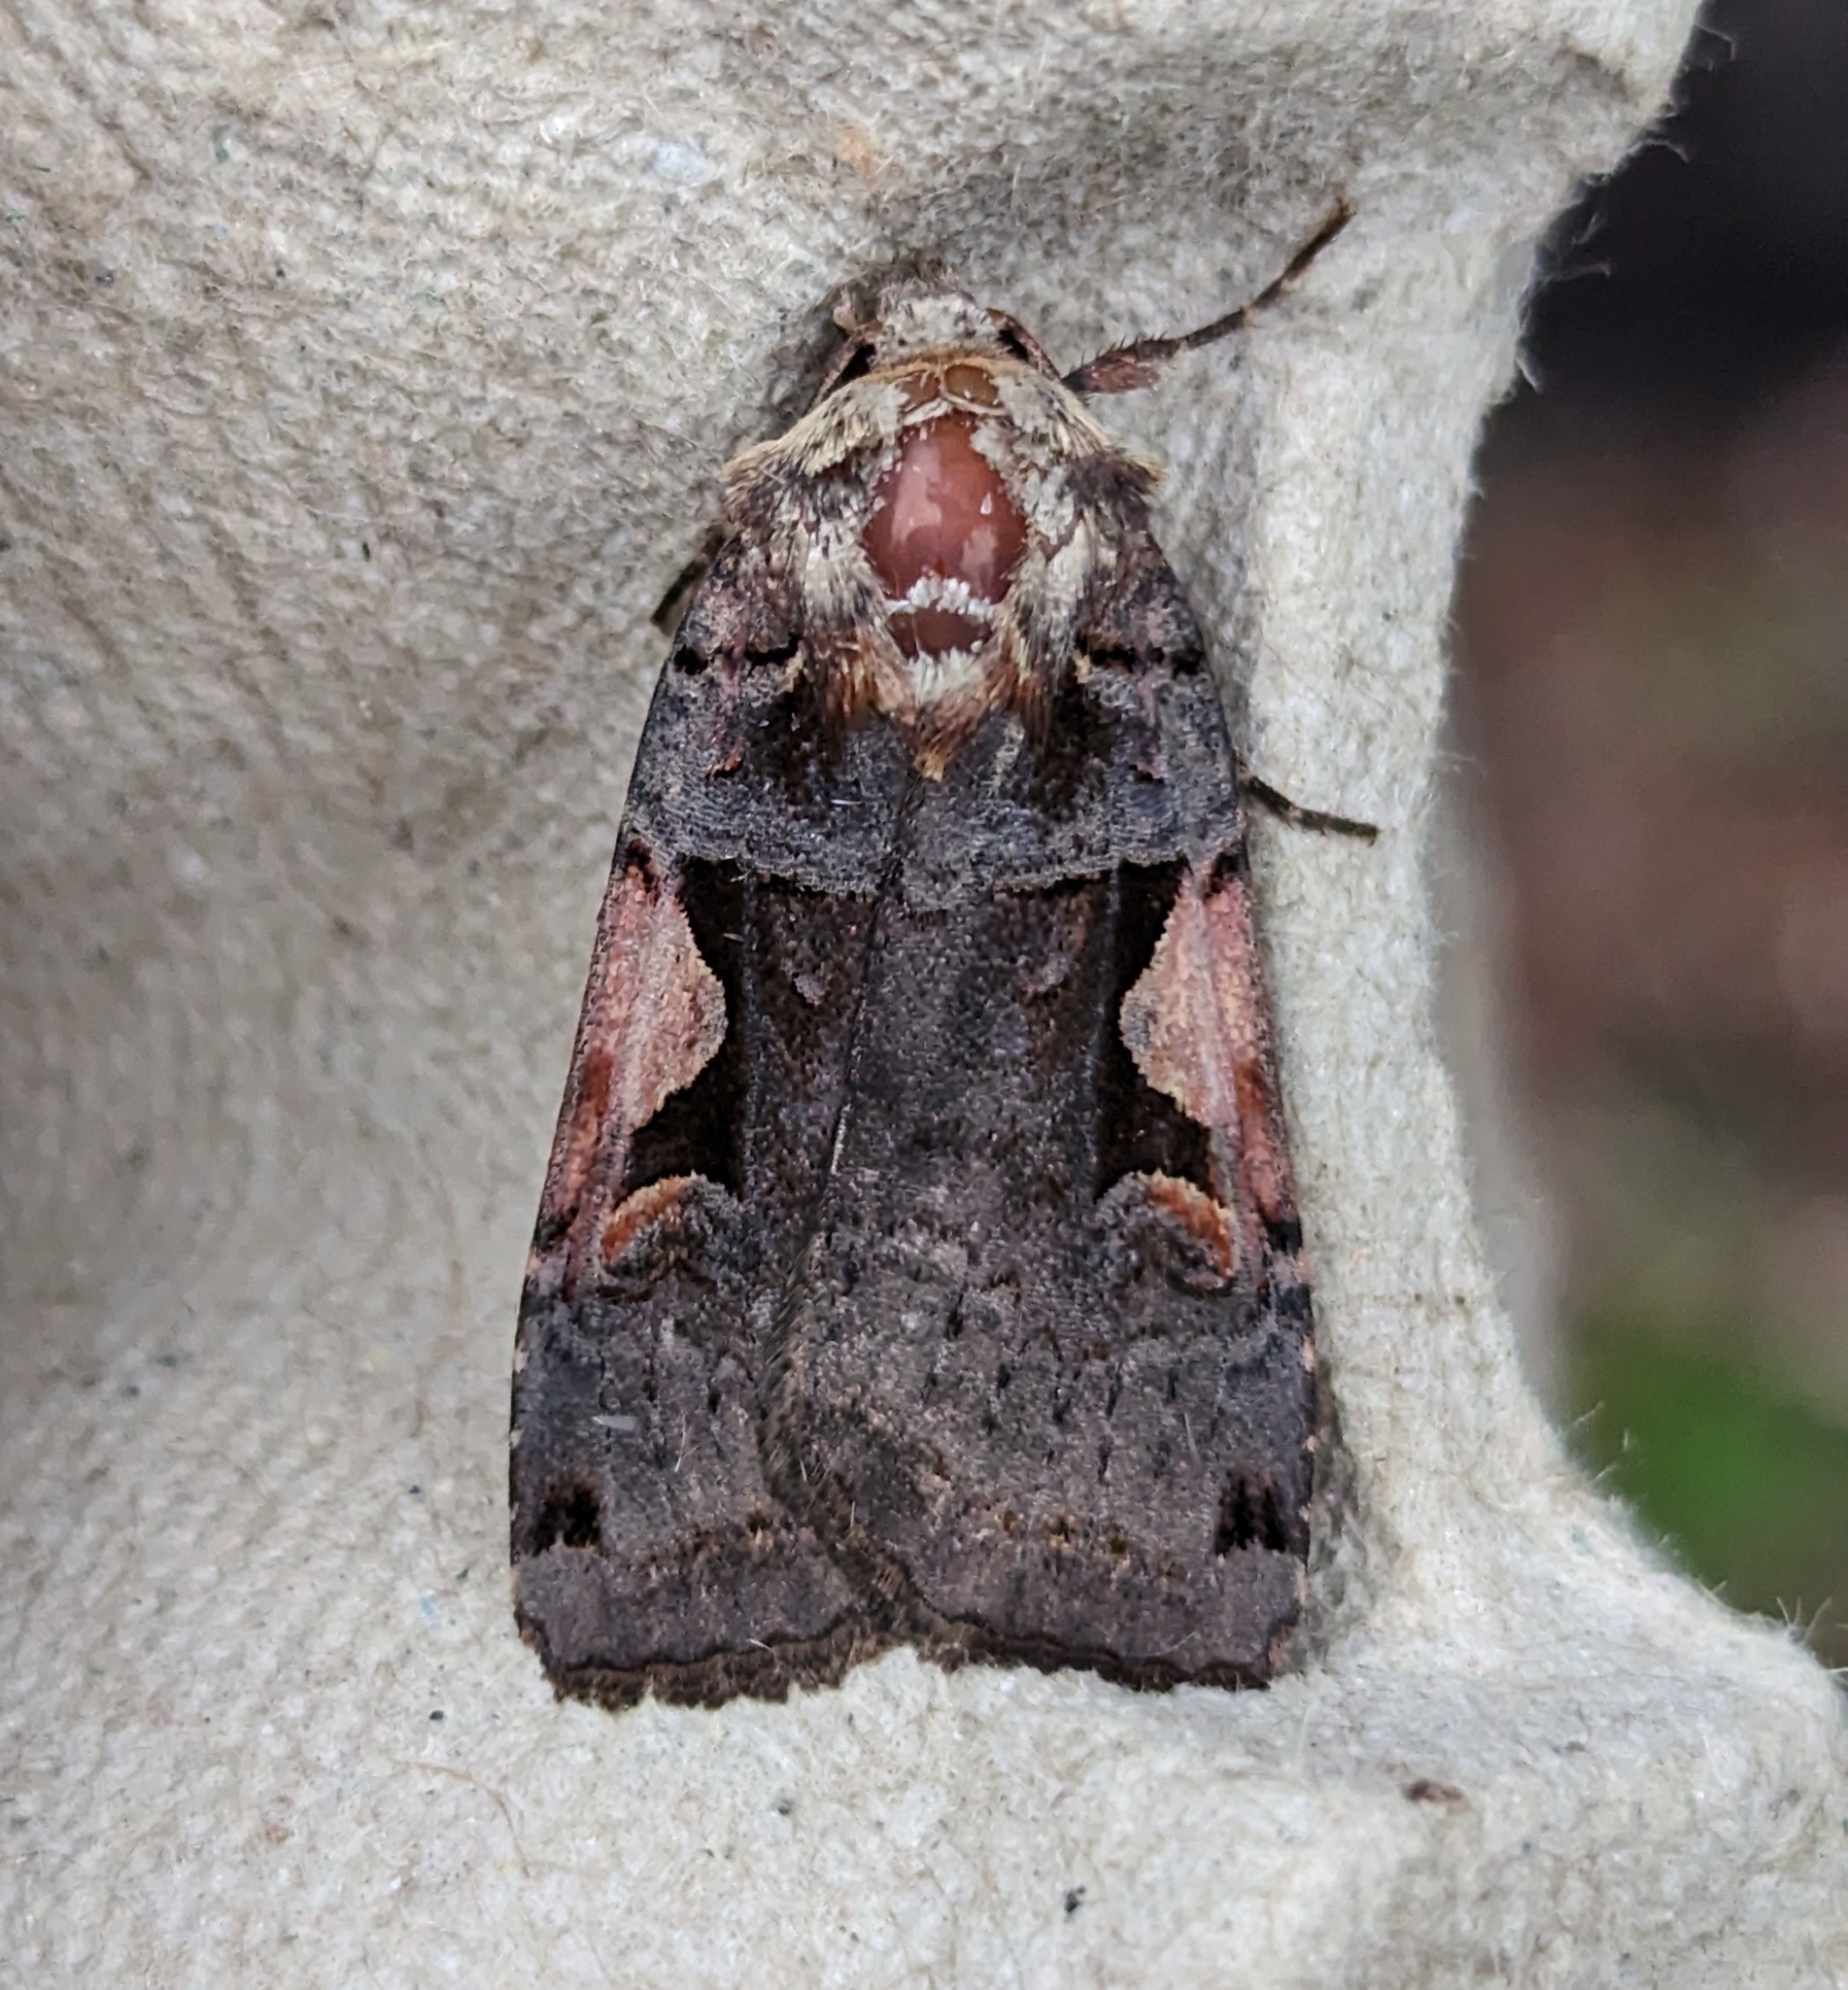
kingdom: Animalia
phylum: Arthropoda
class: Insecta
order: Lepidoptera
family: Noctuidae
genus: Xestia
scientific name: Xestia c-nigrum
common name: Setaceous hebrew character
